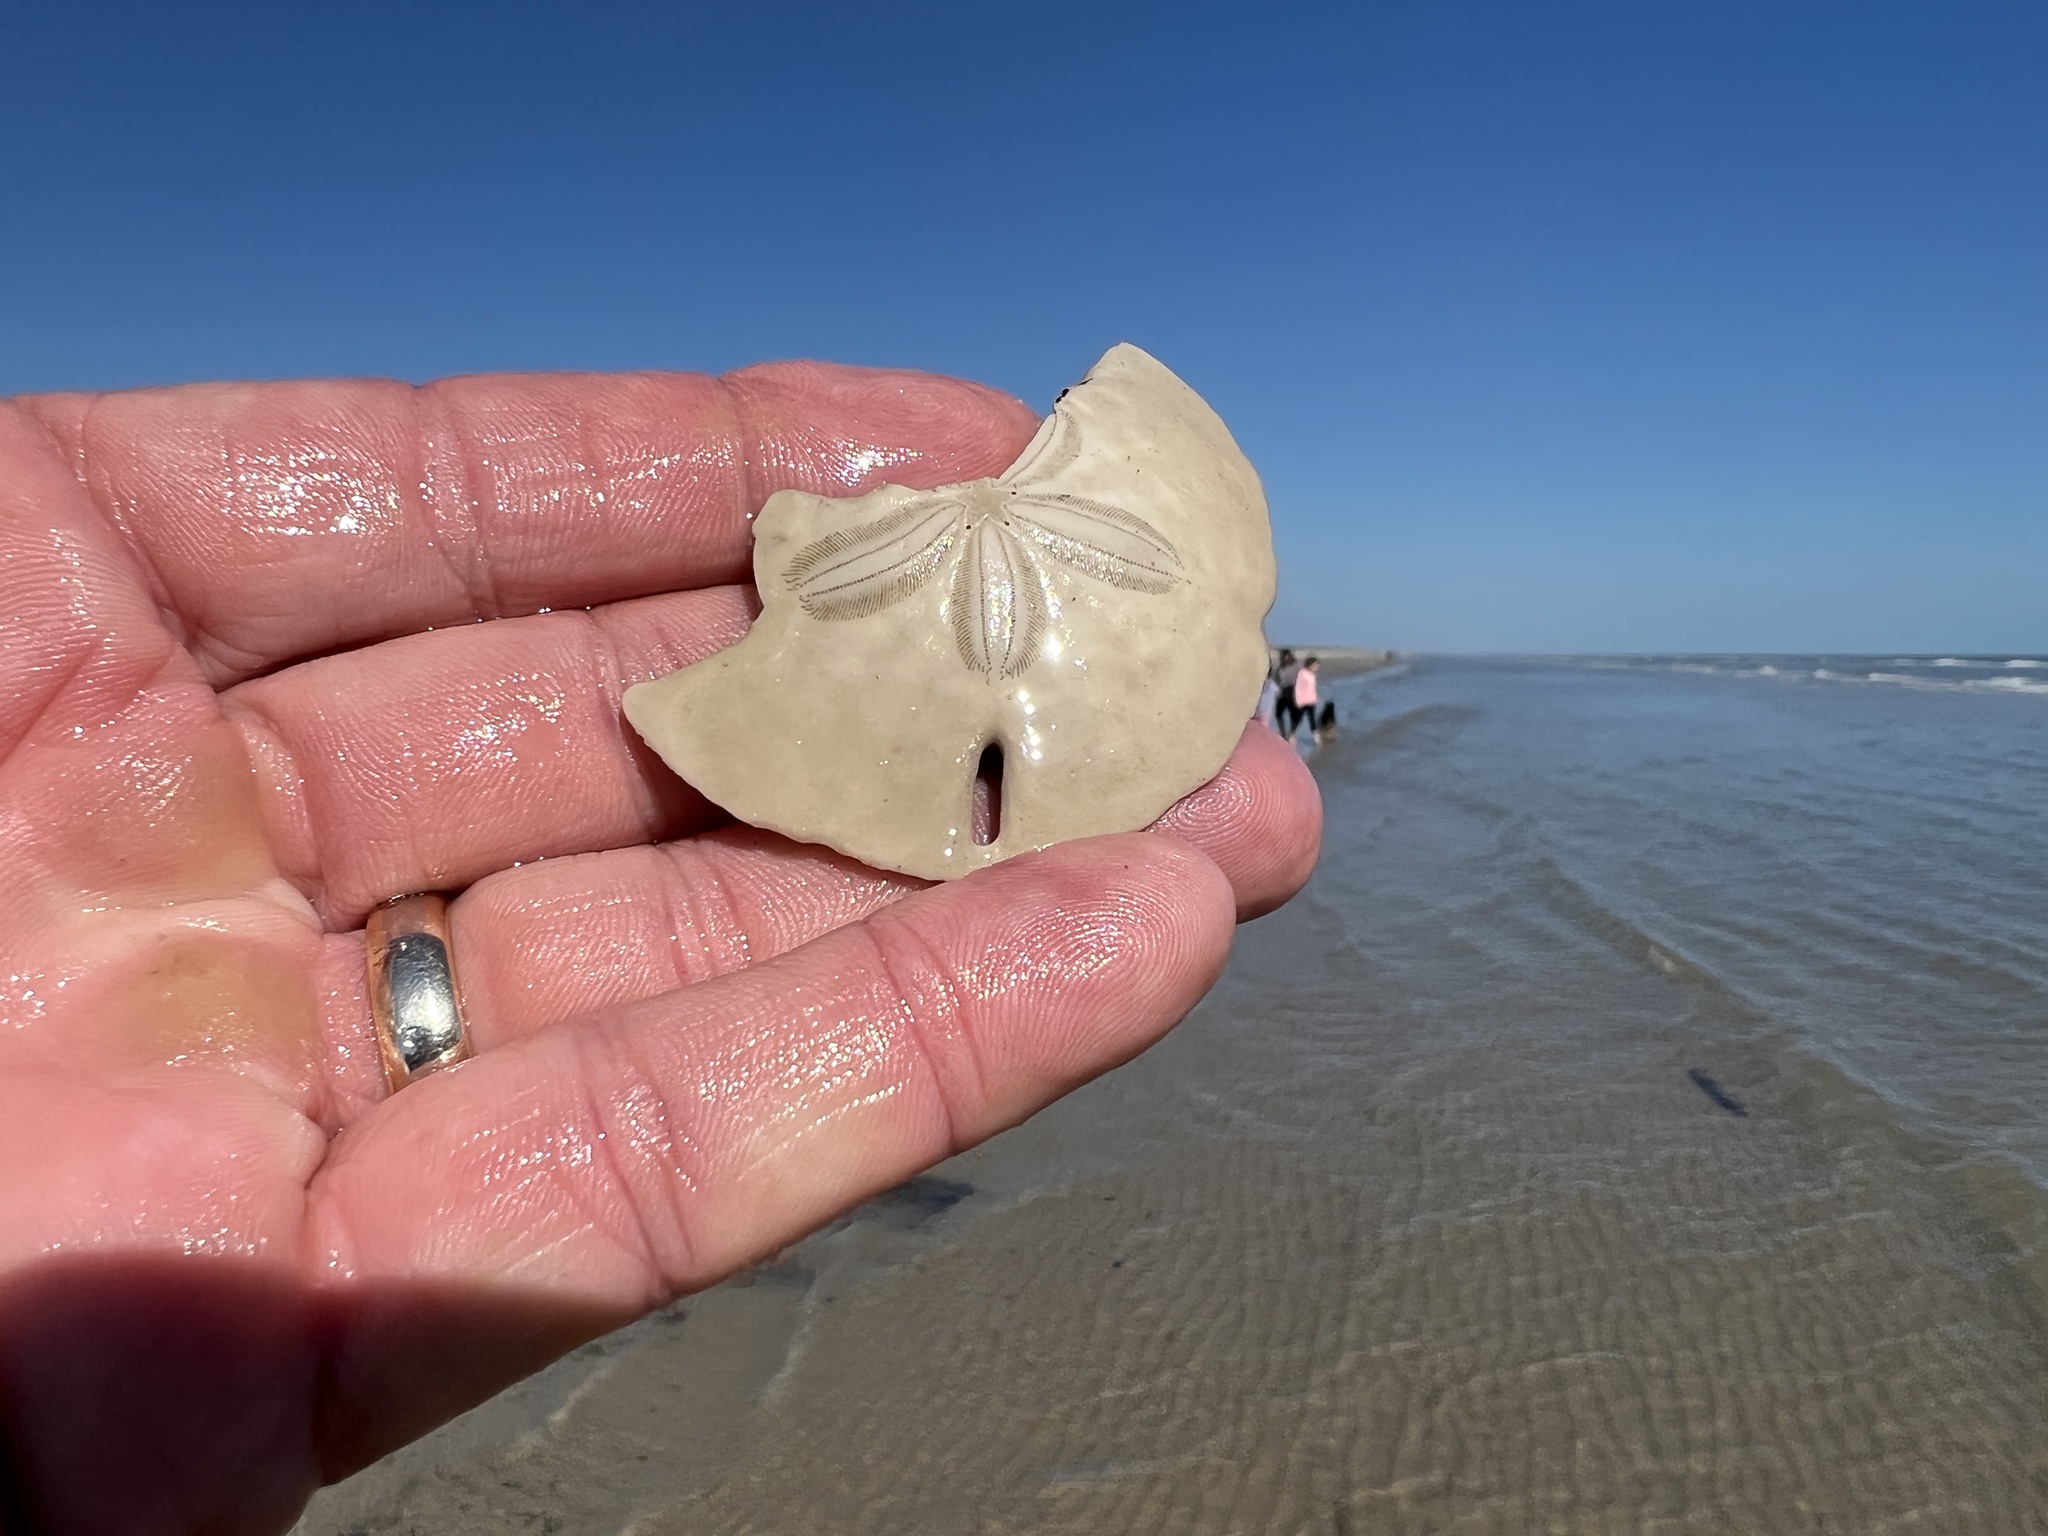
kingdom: Animalia
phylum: Echinodermata
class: Echinoidea
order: Echinolampadacea
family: Mellitidae
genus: Mellita
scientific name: Mellita quinquiesperforata
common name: Sand dollar
